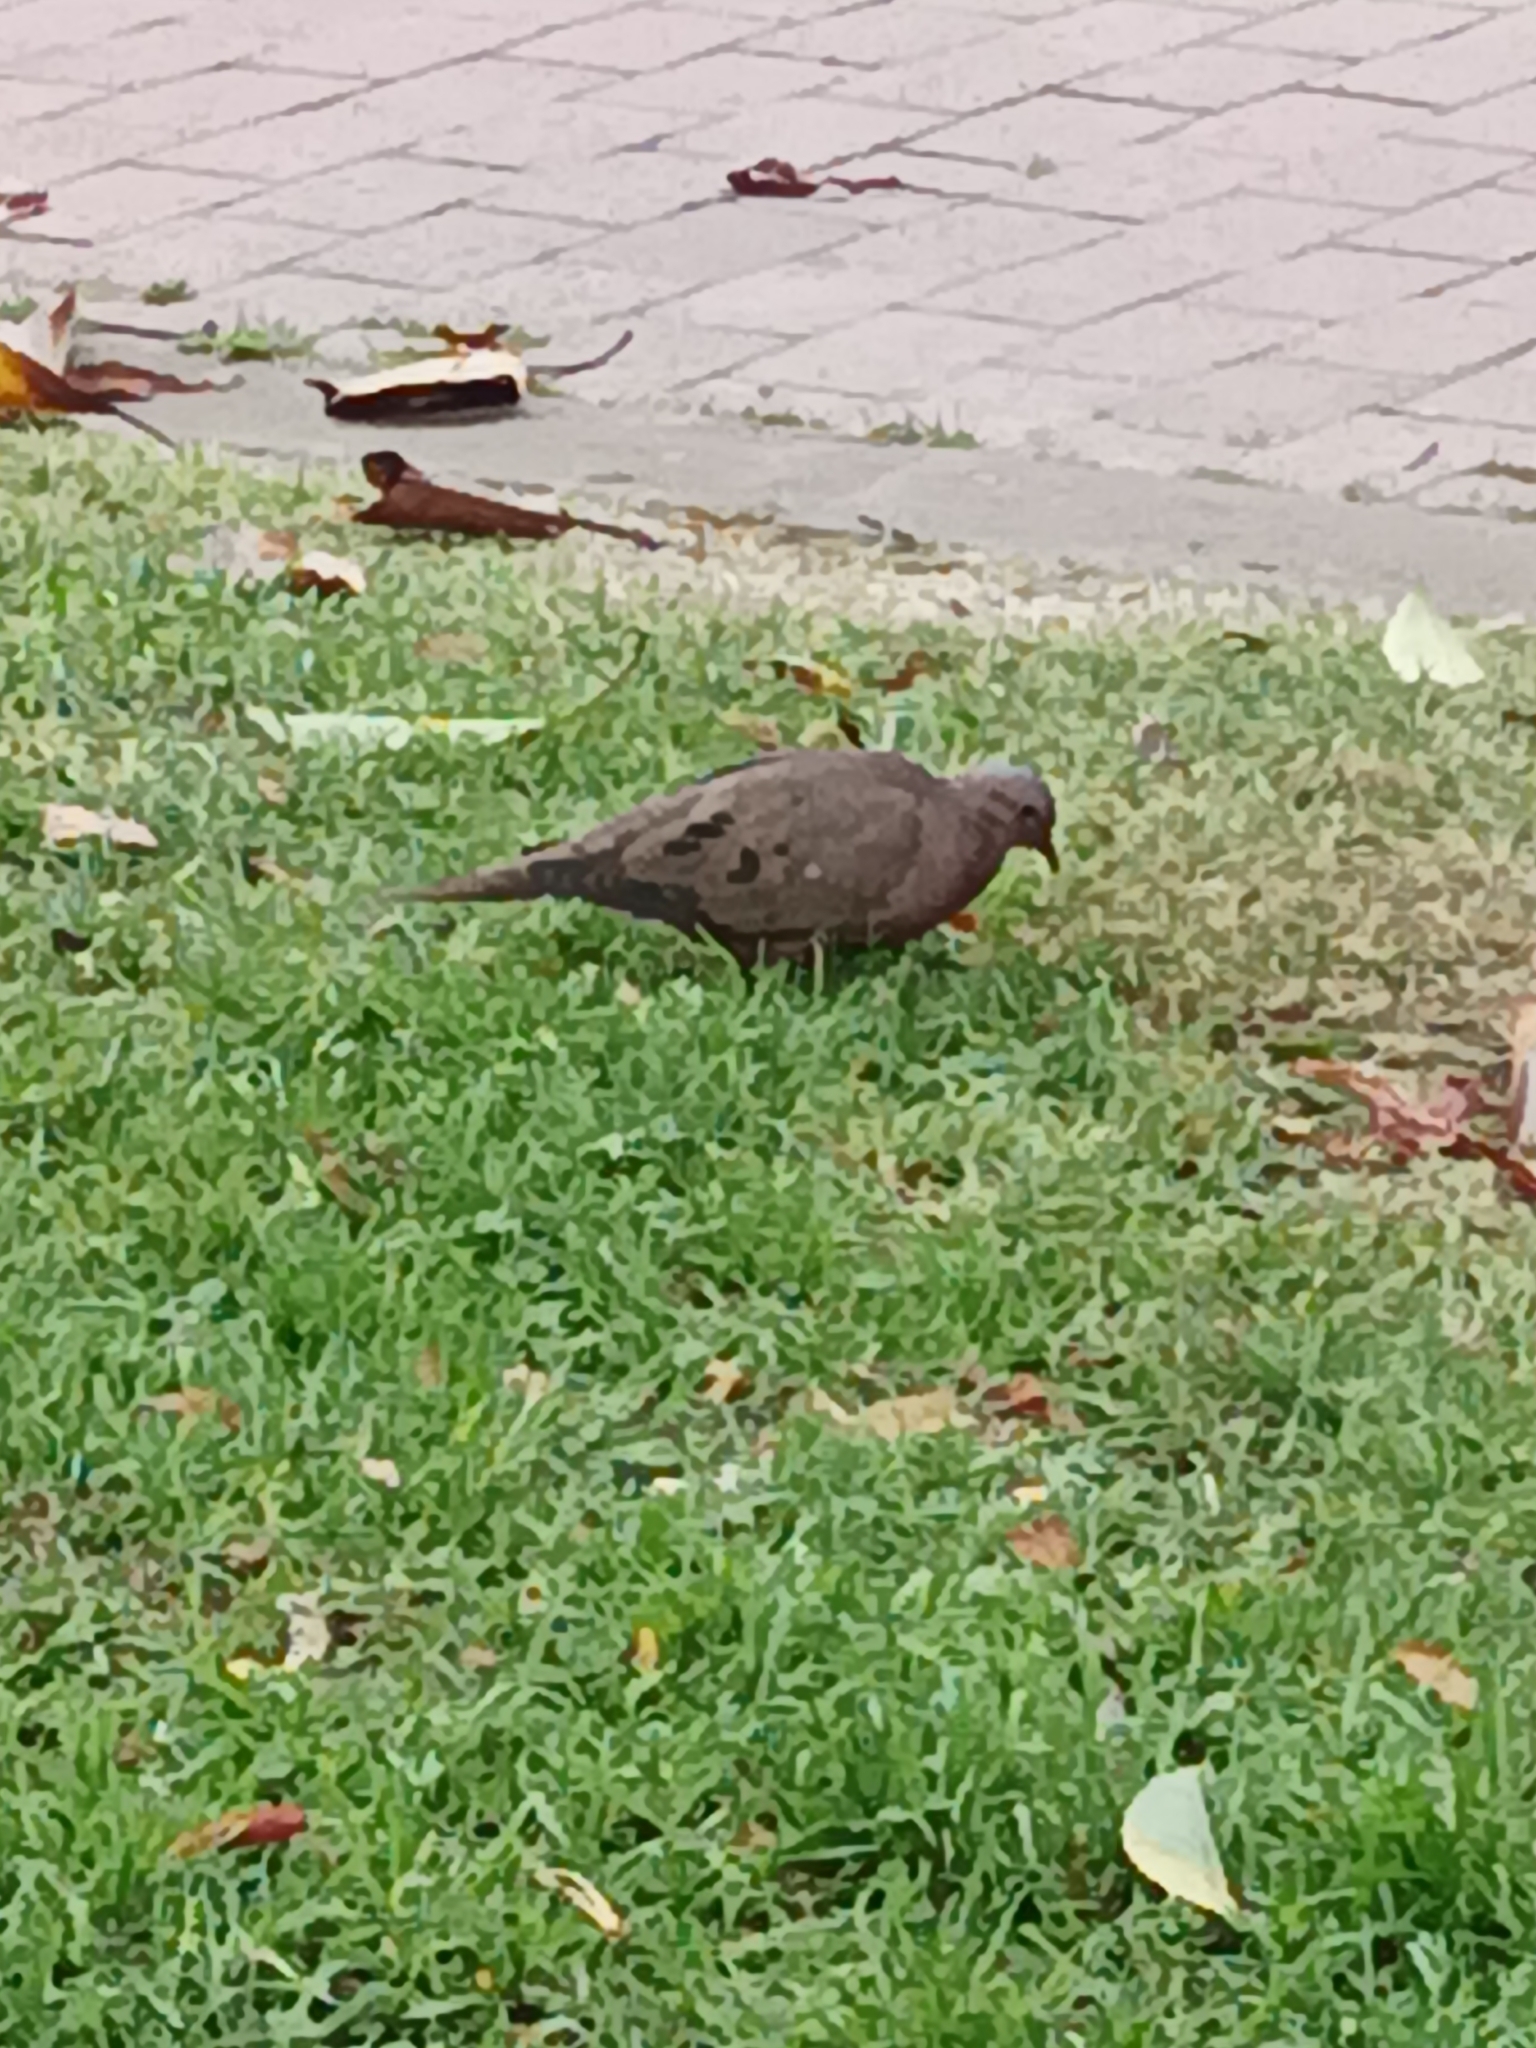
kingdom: Animalia
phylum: Chordata
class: Aves
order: Columbiformes
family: Columbidae
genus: Zenaida
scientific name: Zenaida auriculata
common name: Eared dove
